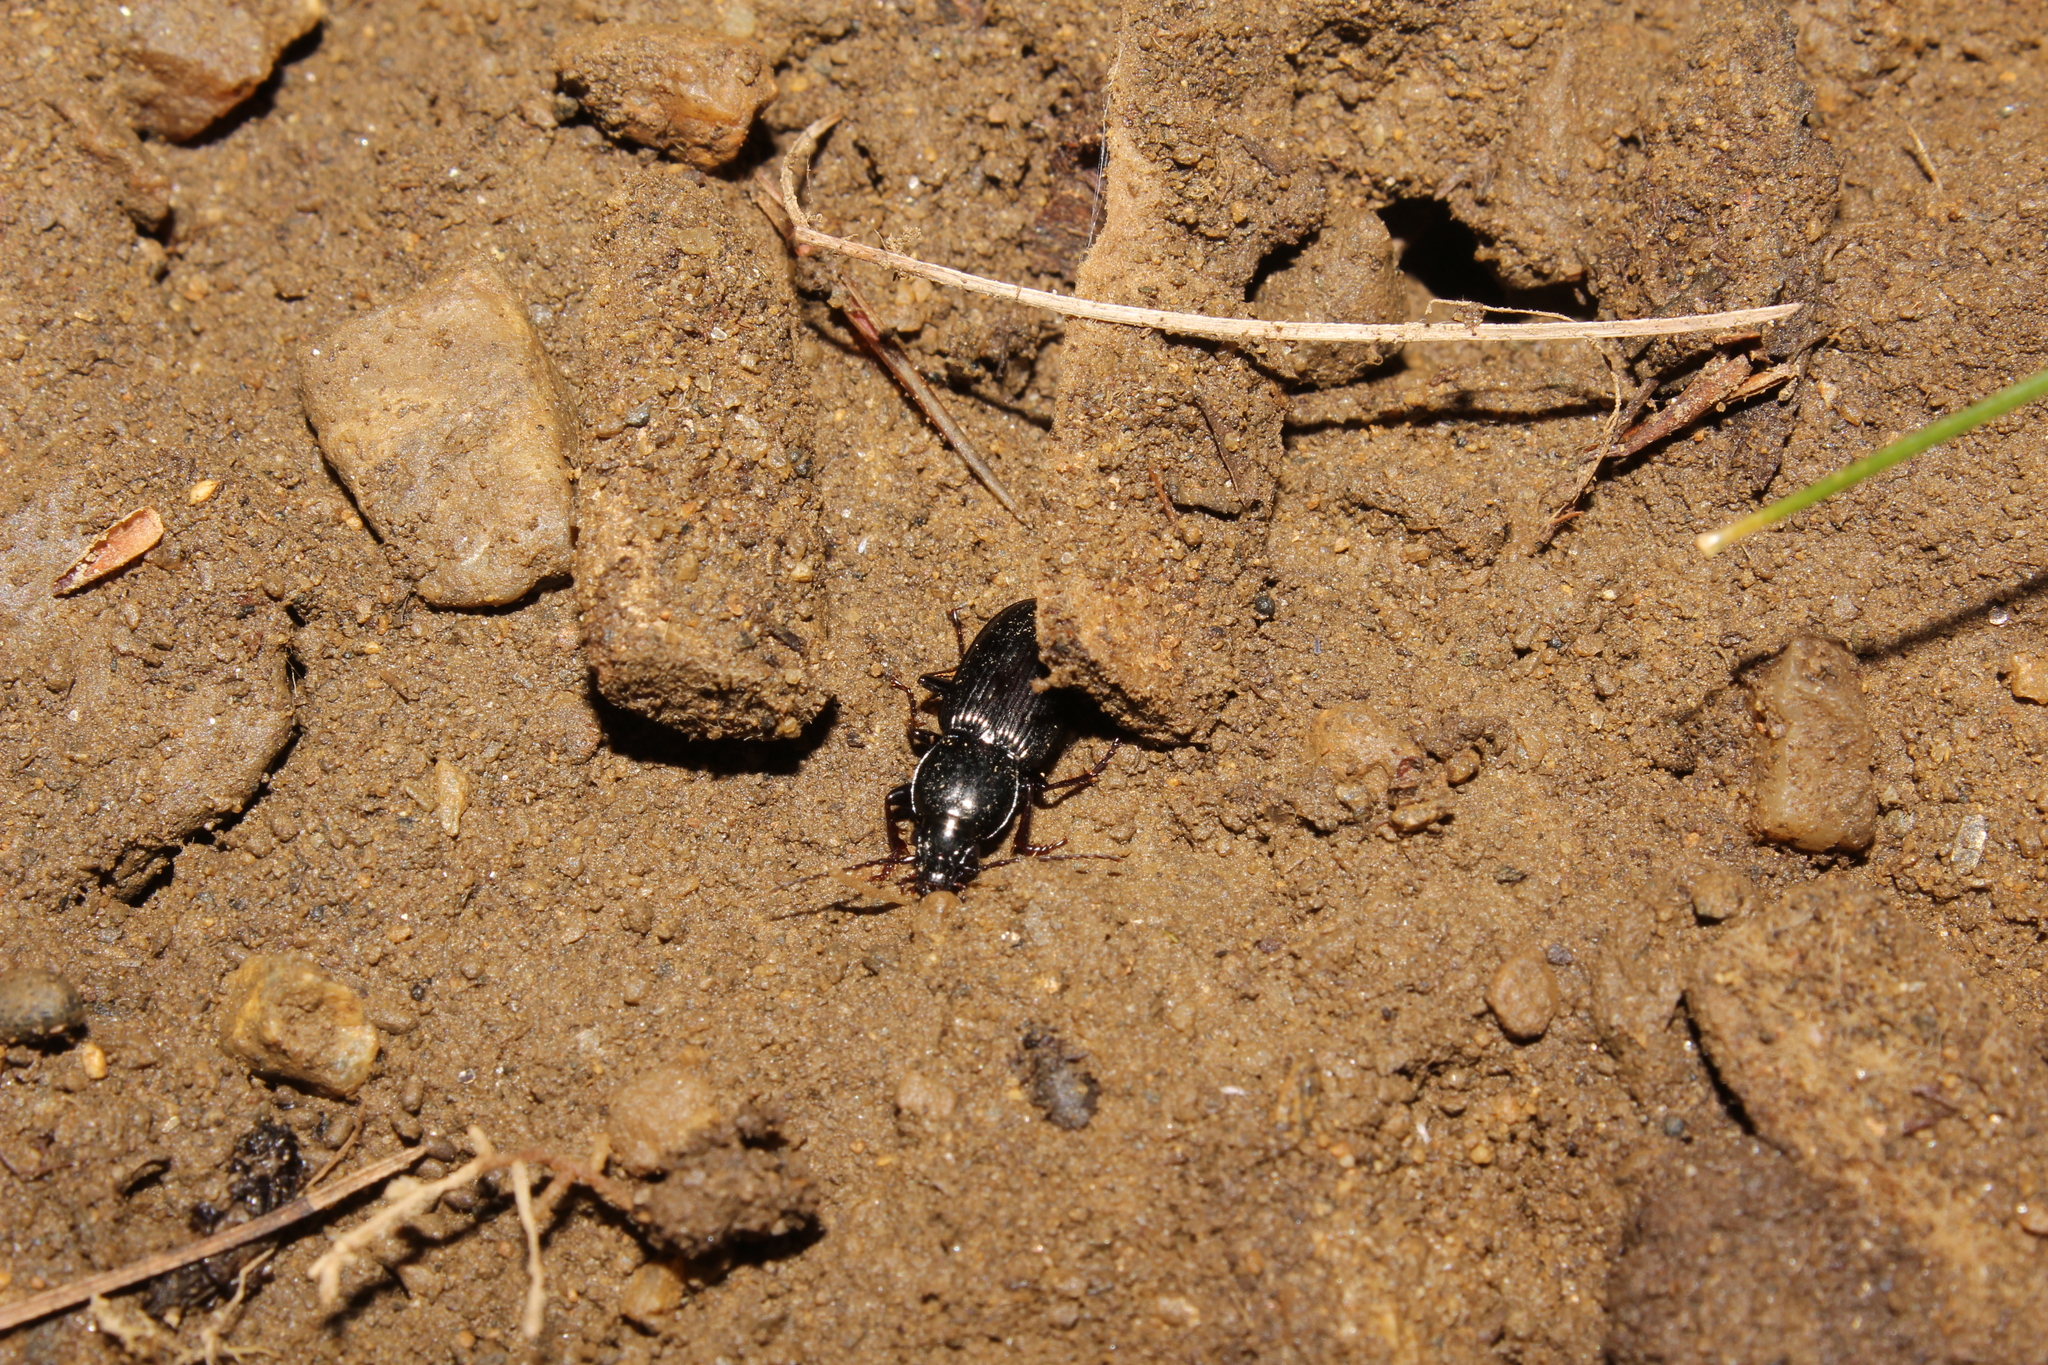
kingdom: Animalia
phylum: Arthropoda
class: Insecta
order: Coleoptera
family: Carabidae
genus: Pterostichus
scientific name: Pterostichus mutus
